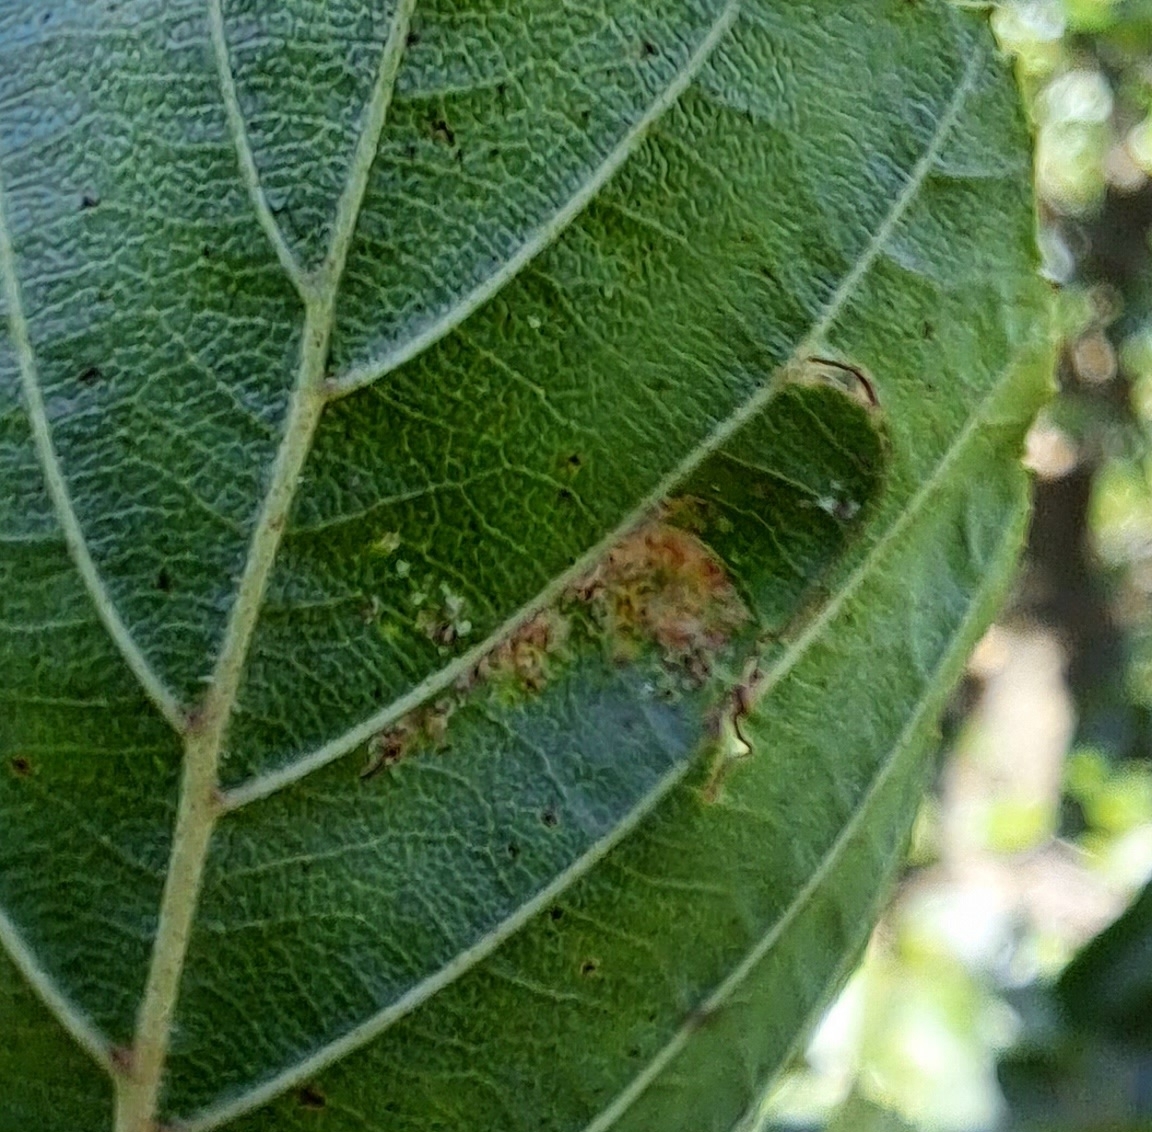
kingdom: Animalia
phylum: Arthropoda
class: Arachnida
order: Trombidiformes
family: Eriophyidae
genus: Acalitus
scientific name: Acalitus brevitarsus
